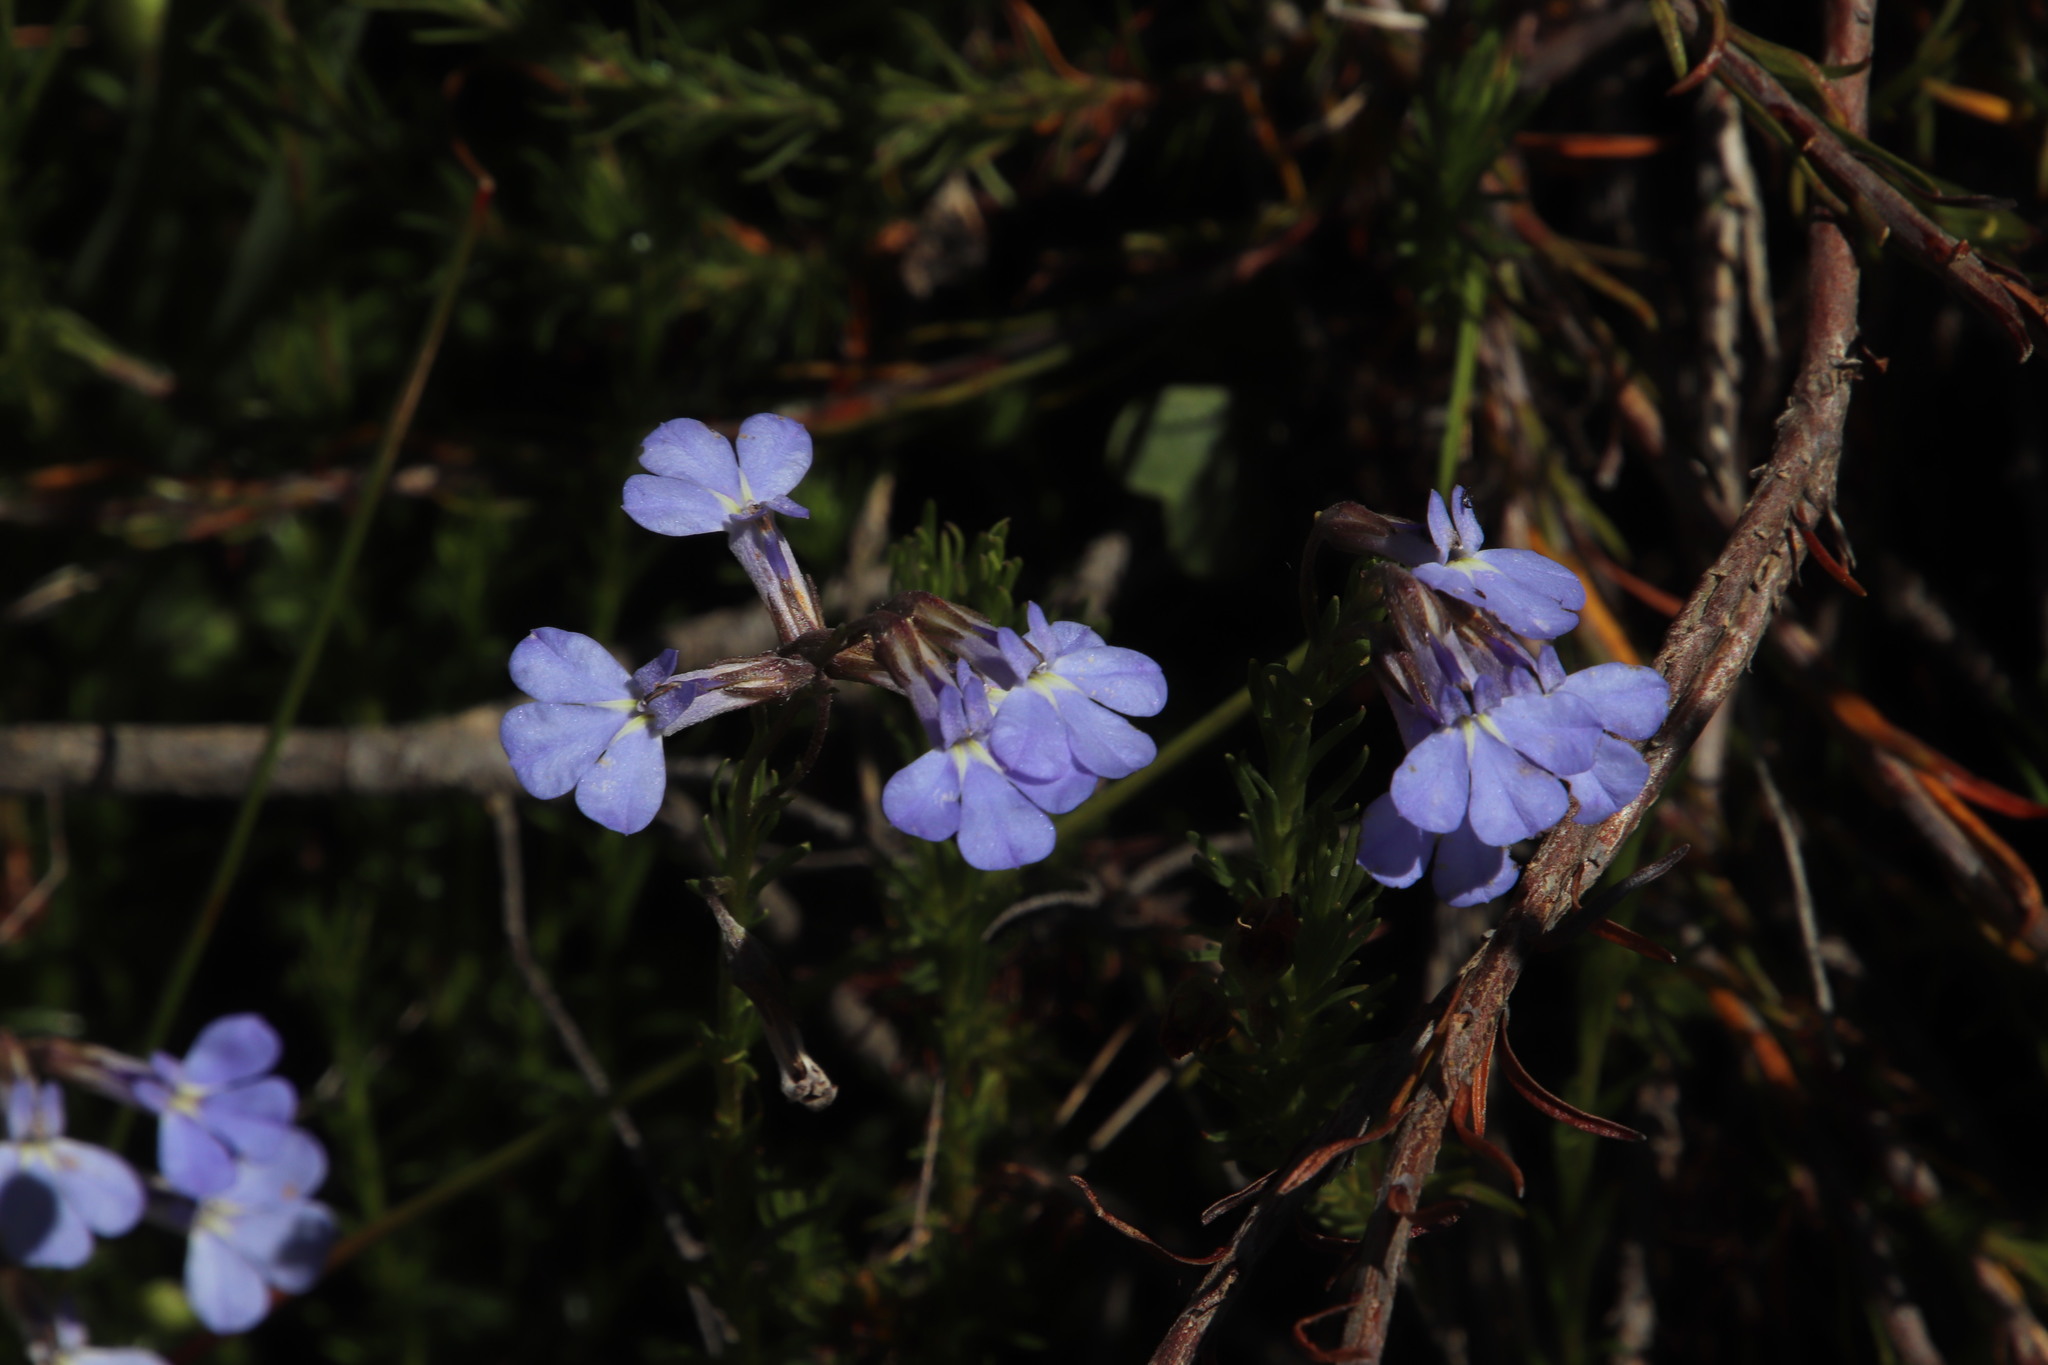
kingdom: Plantae
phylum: Tracheophyta
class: Magnoliopsida
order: Asterales
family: Campanulaceae
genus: Lobelia
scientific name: Lobelia pinifolia
